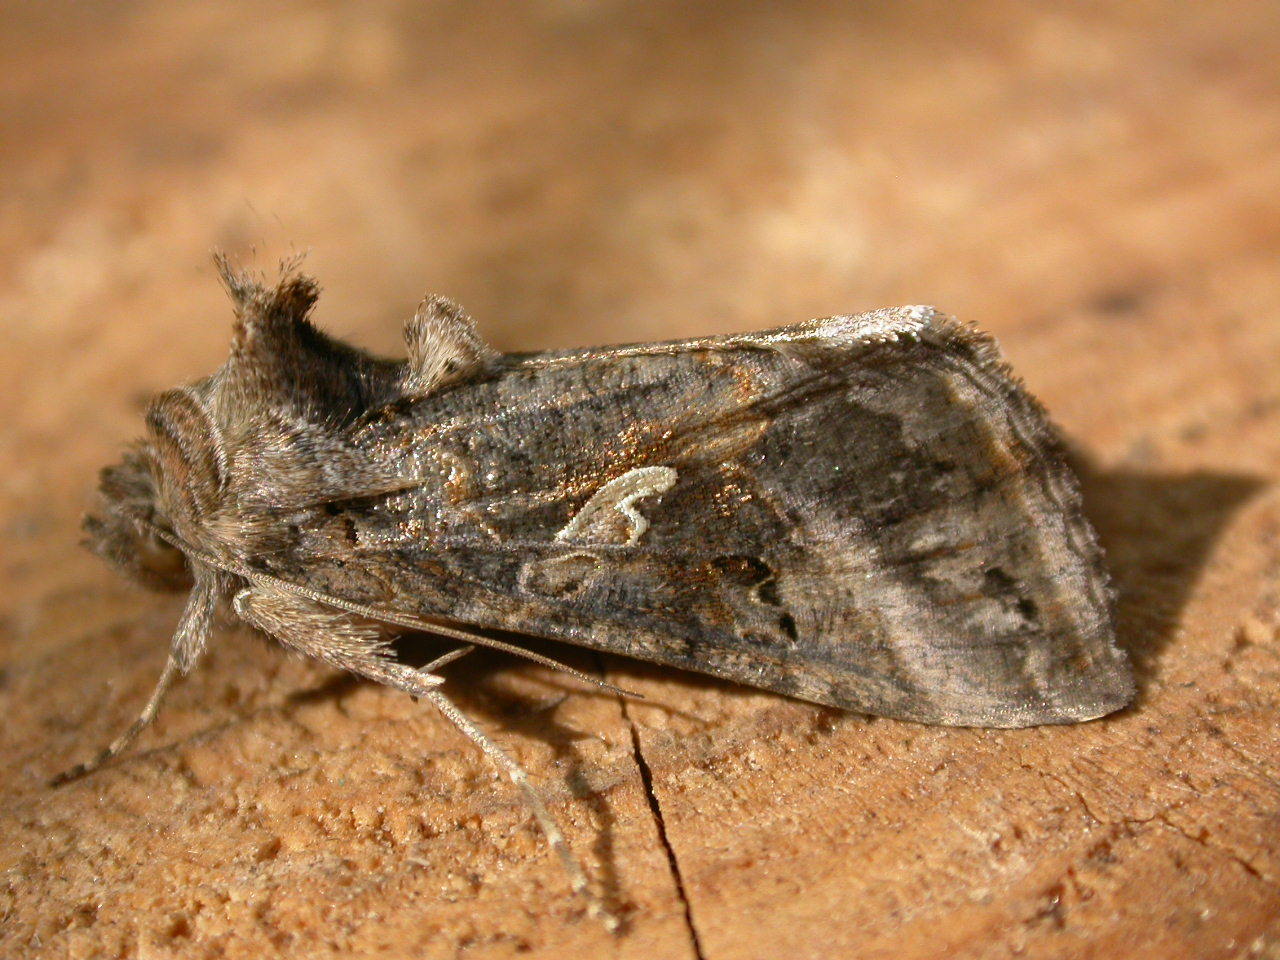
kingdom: Animalia
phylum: Arthropoda
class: Insecta
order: Lepidoptera
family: Noctuidae
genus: Autographa
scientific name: Autographa gamma
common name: Silver y
